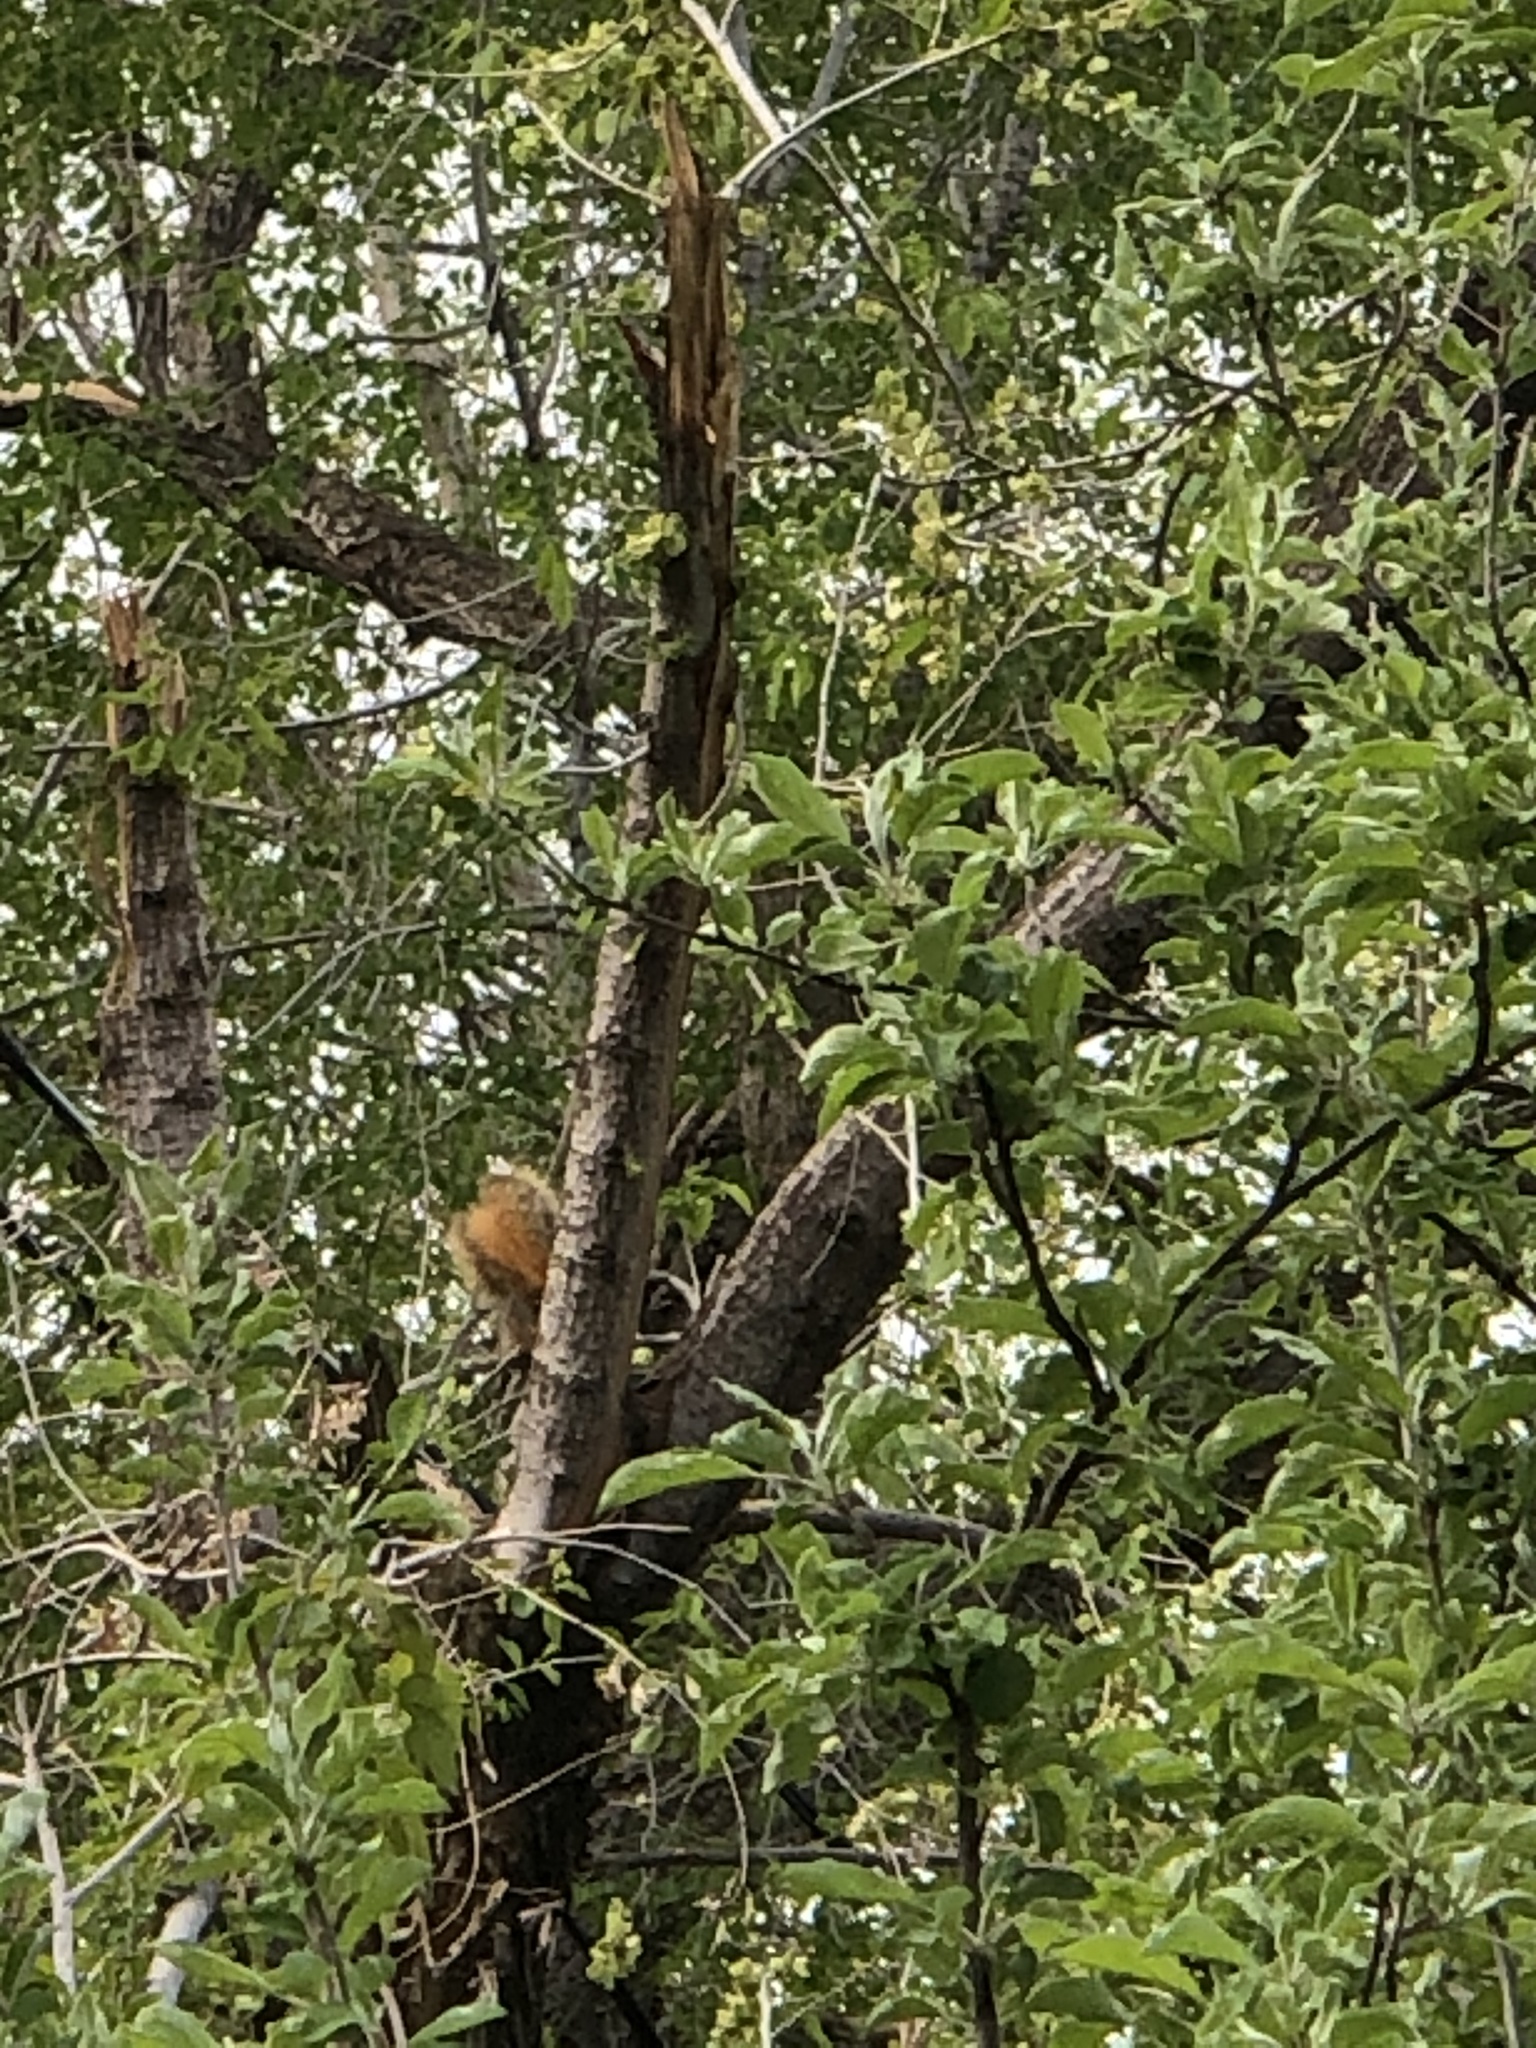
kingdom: Animalia
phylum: Chordata
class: Mammalia
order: Rodentia
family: Sciuridae
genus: Sciurus
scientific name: Sciurus niger
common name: Fox squirrel
